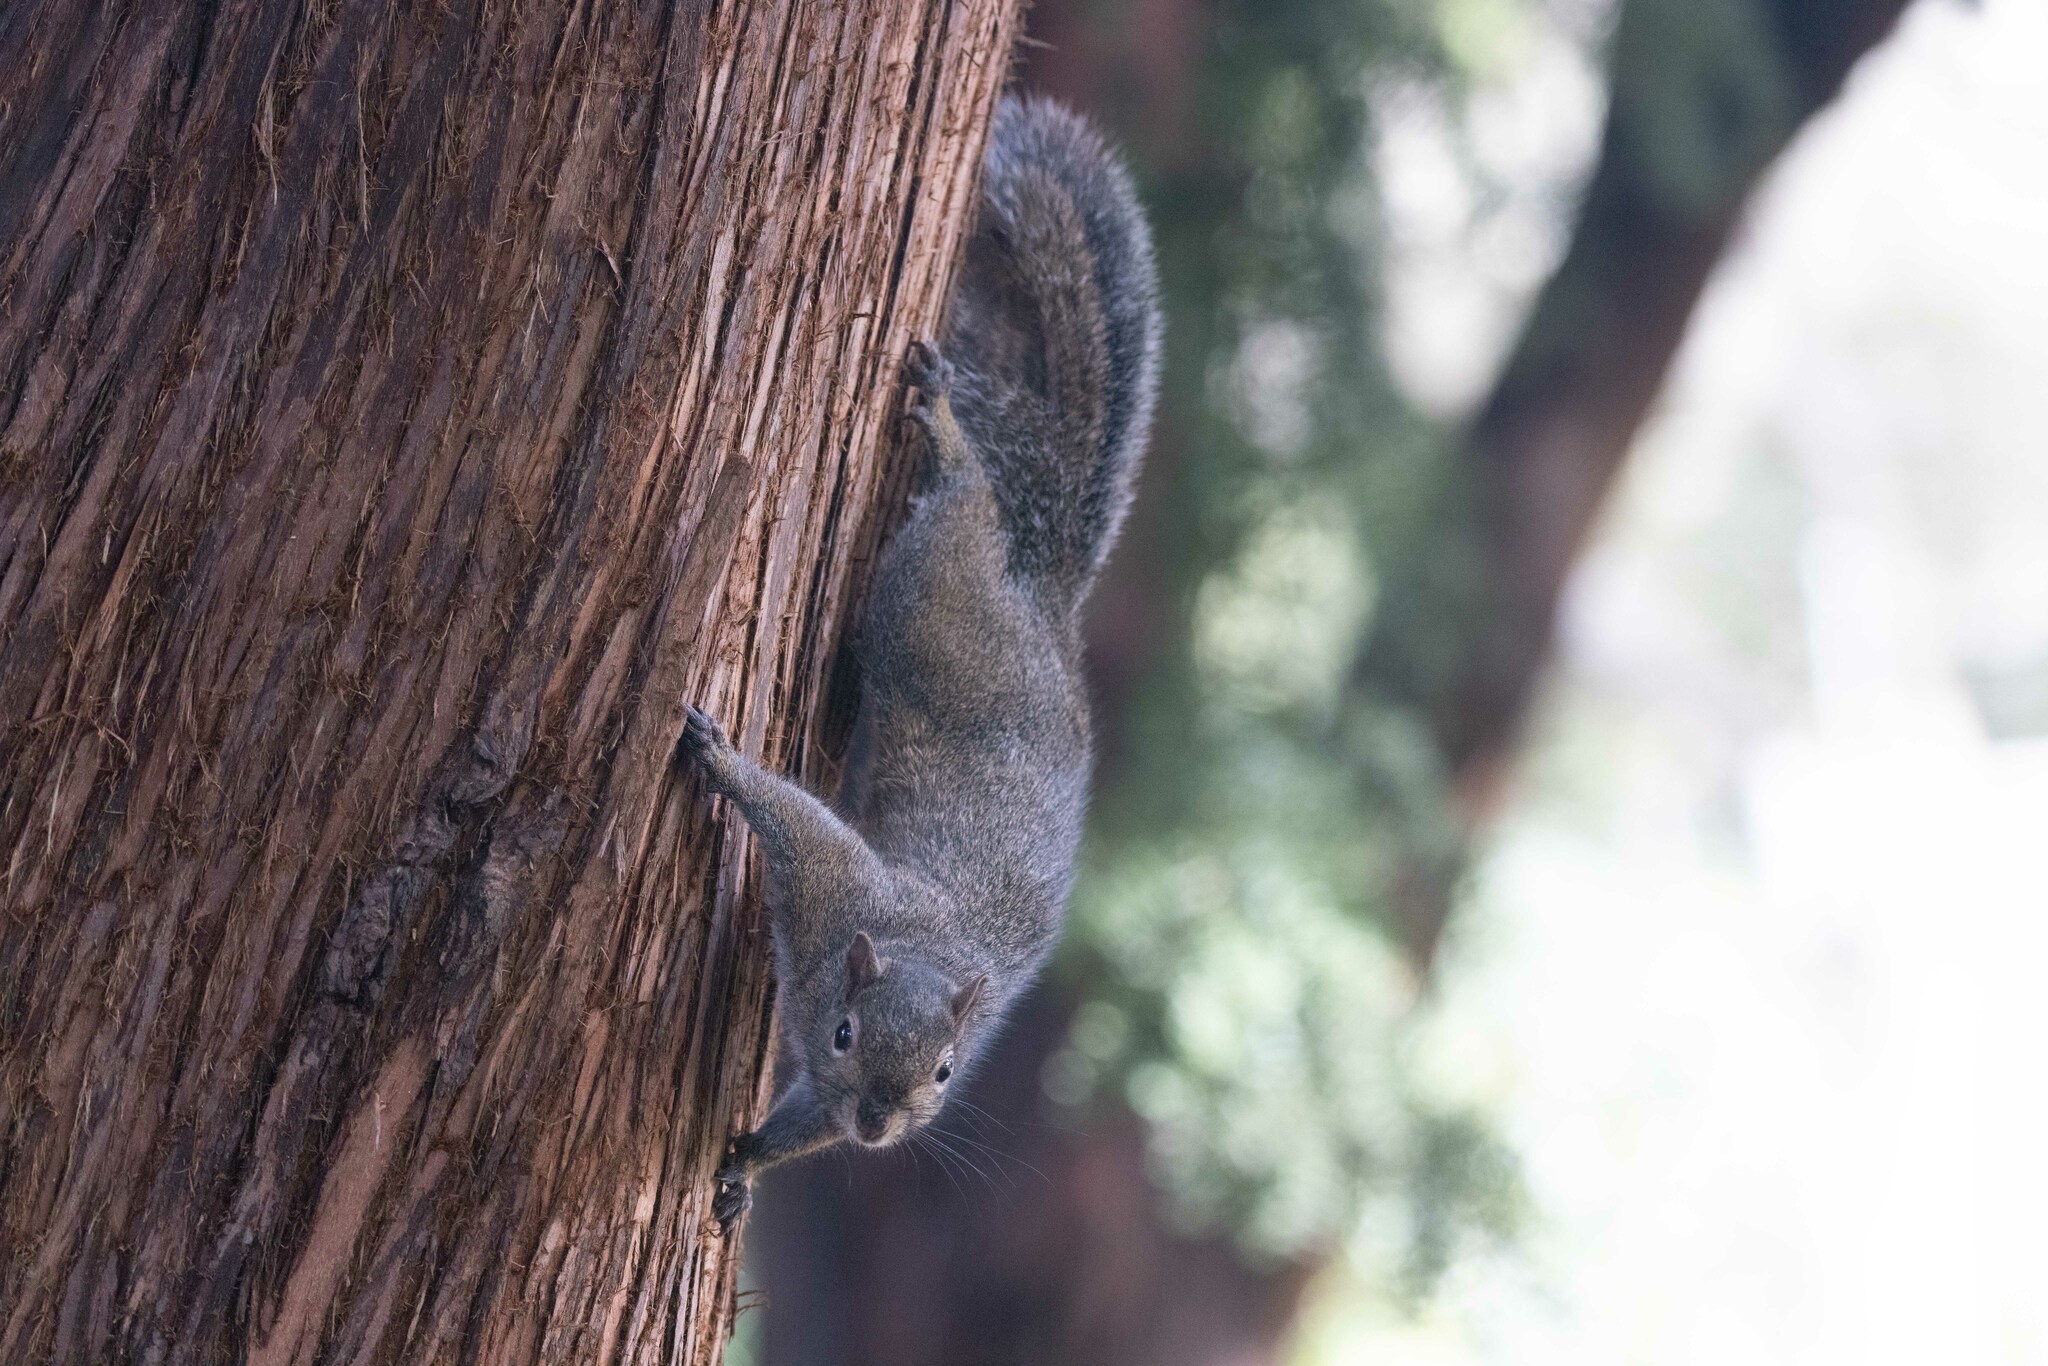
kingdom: Animalia
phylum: Chordata
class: Mammalia
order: Rodentia
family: Sciuridae
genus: Sciurus
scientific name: Sciurus carolinensis
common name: Eastern gray squirrel
